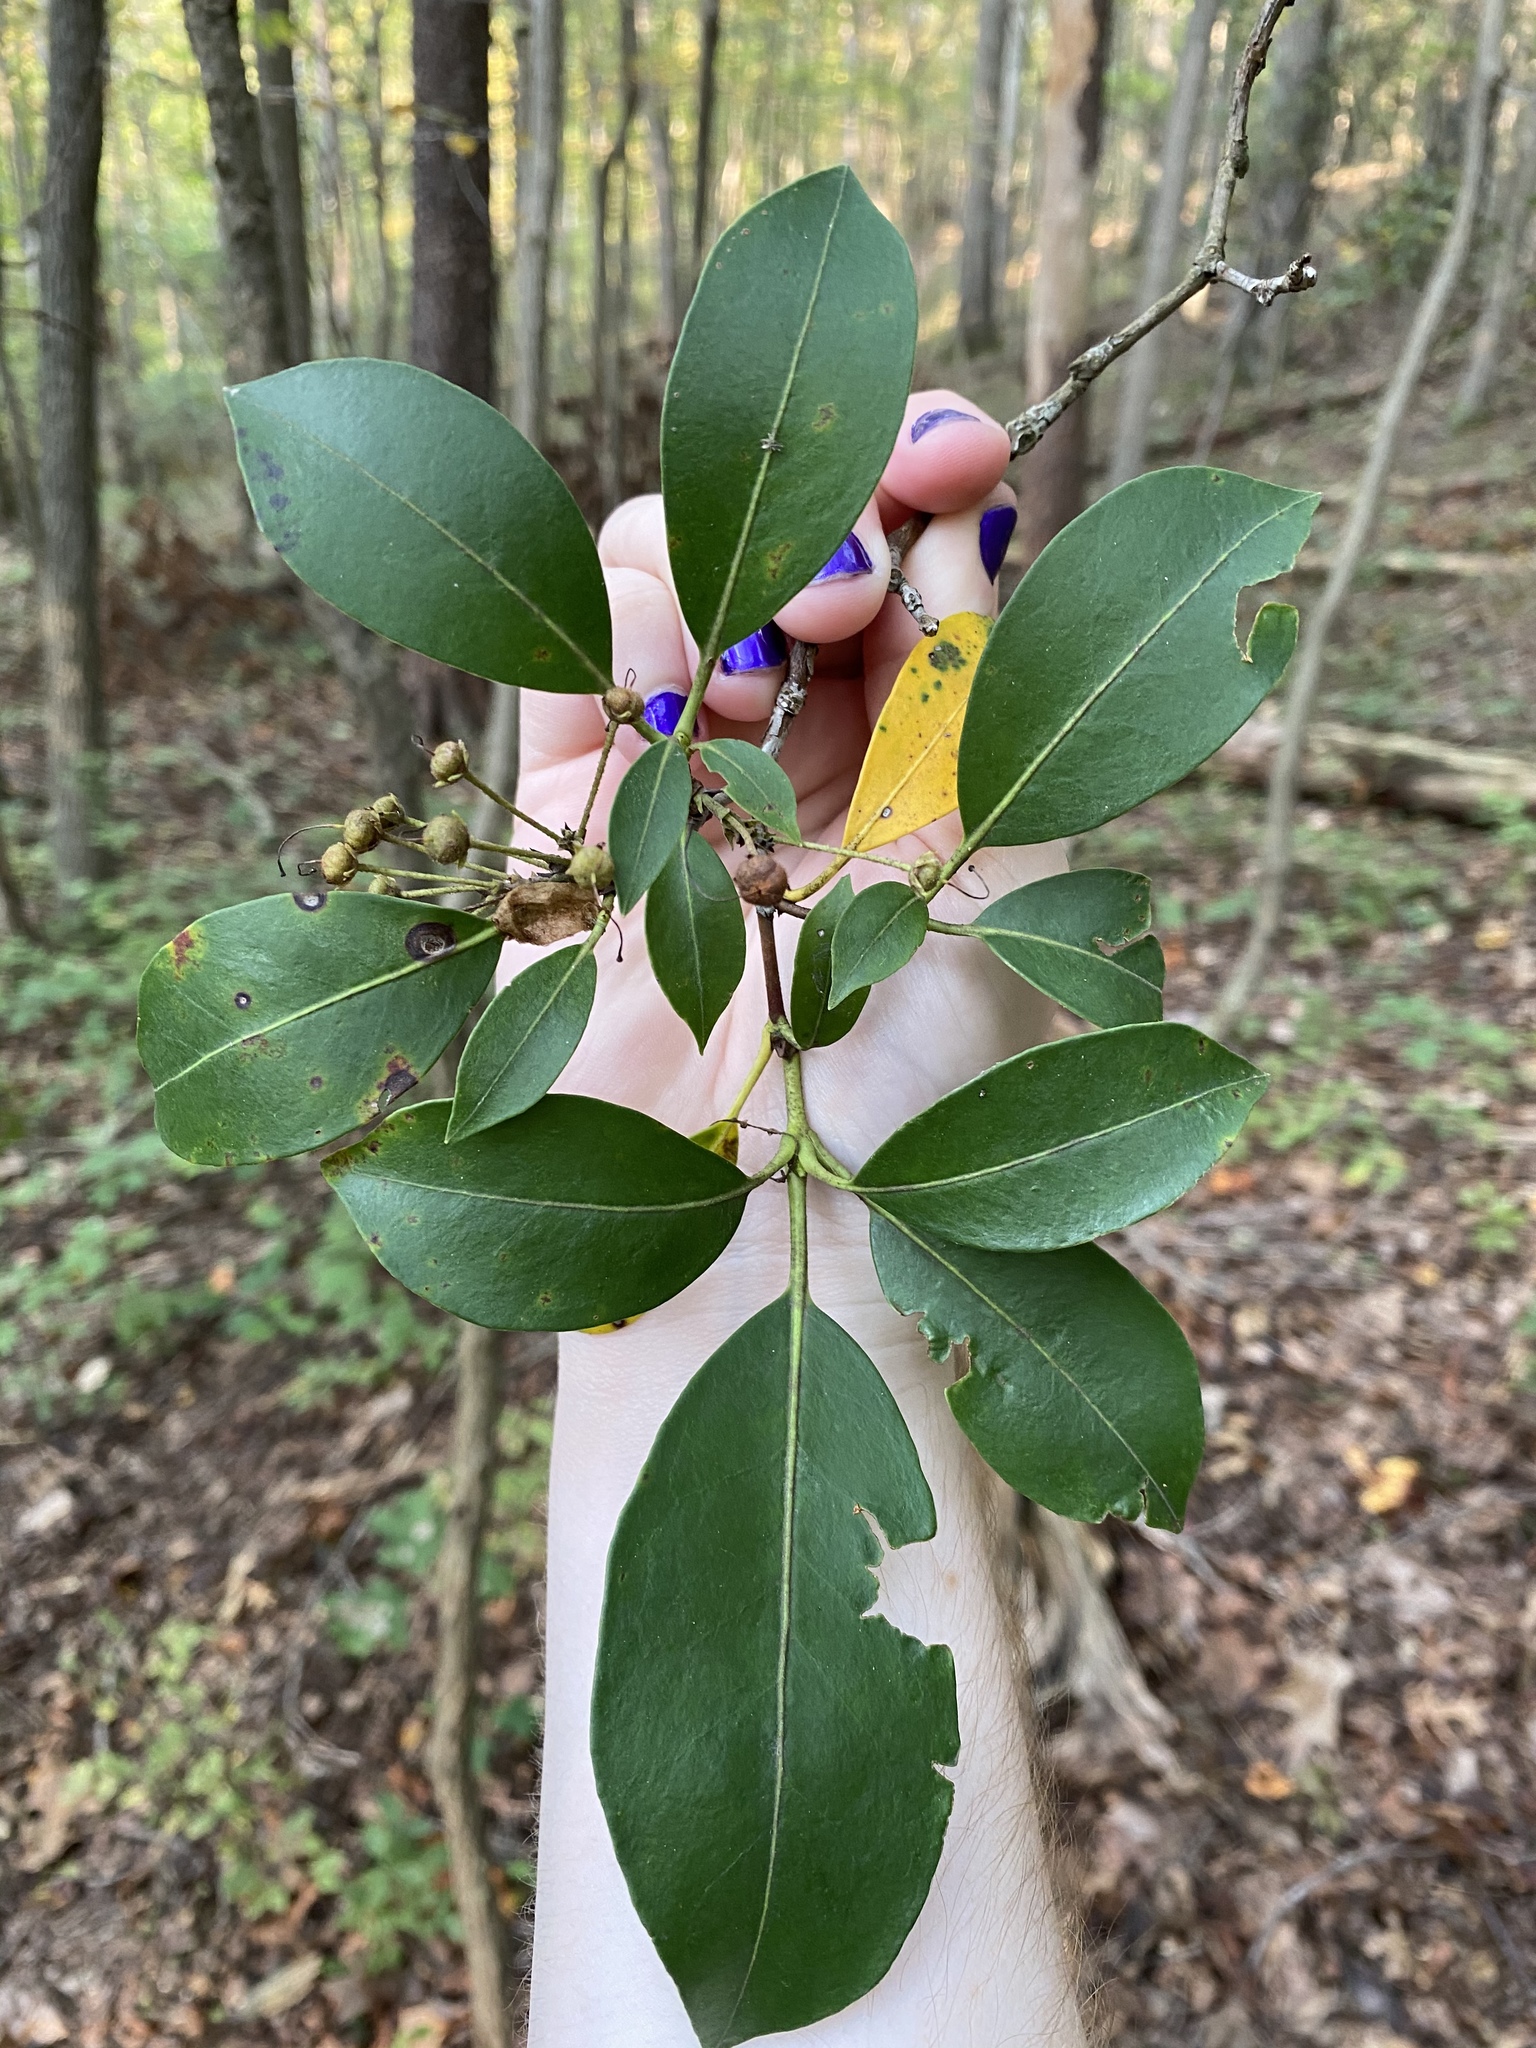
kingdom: Plantae
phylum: Tracheophyta
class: Magnoliopsida
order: Ericales
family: Ericaceae
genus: Kalmia
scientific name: Kalmia latifolia
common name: Mountain-laurel
